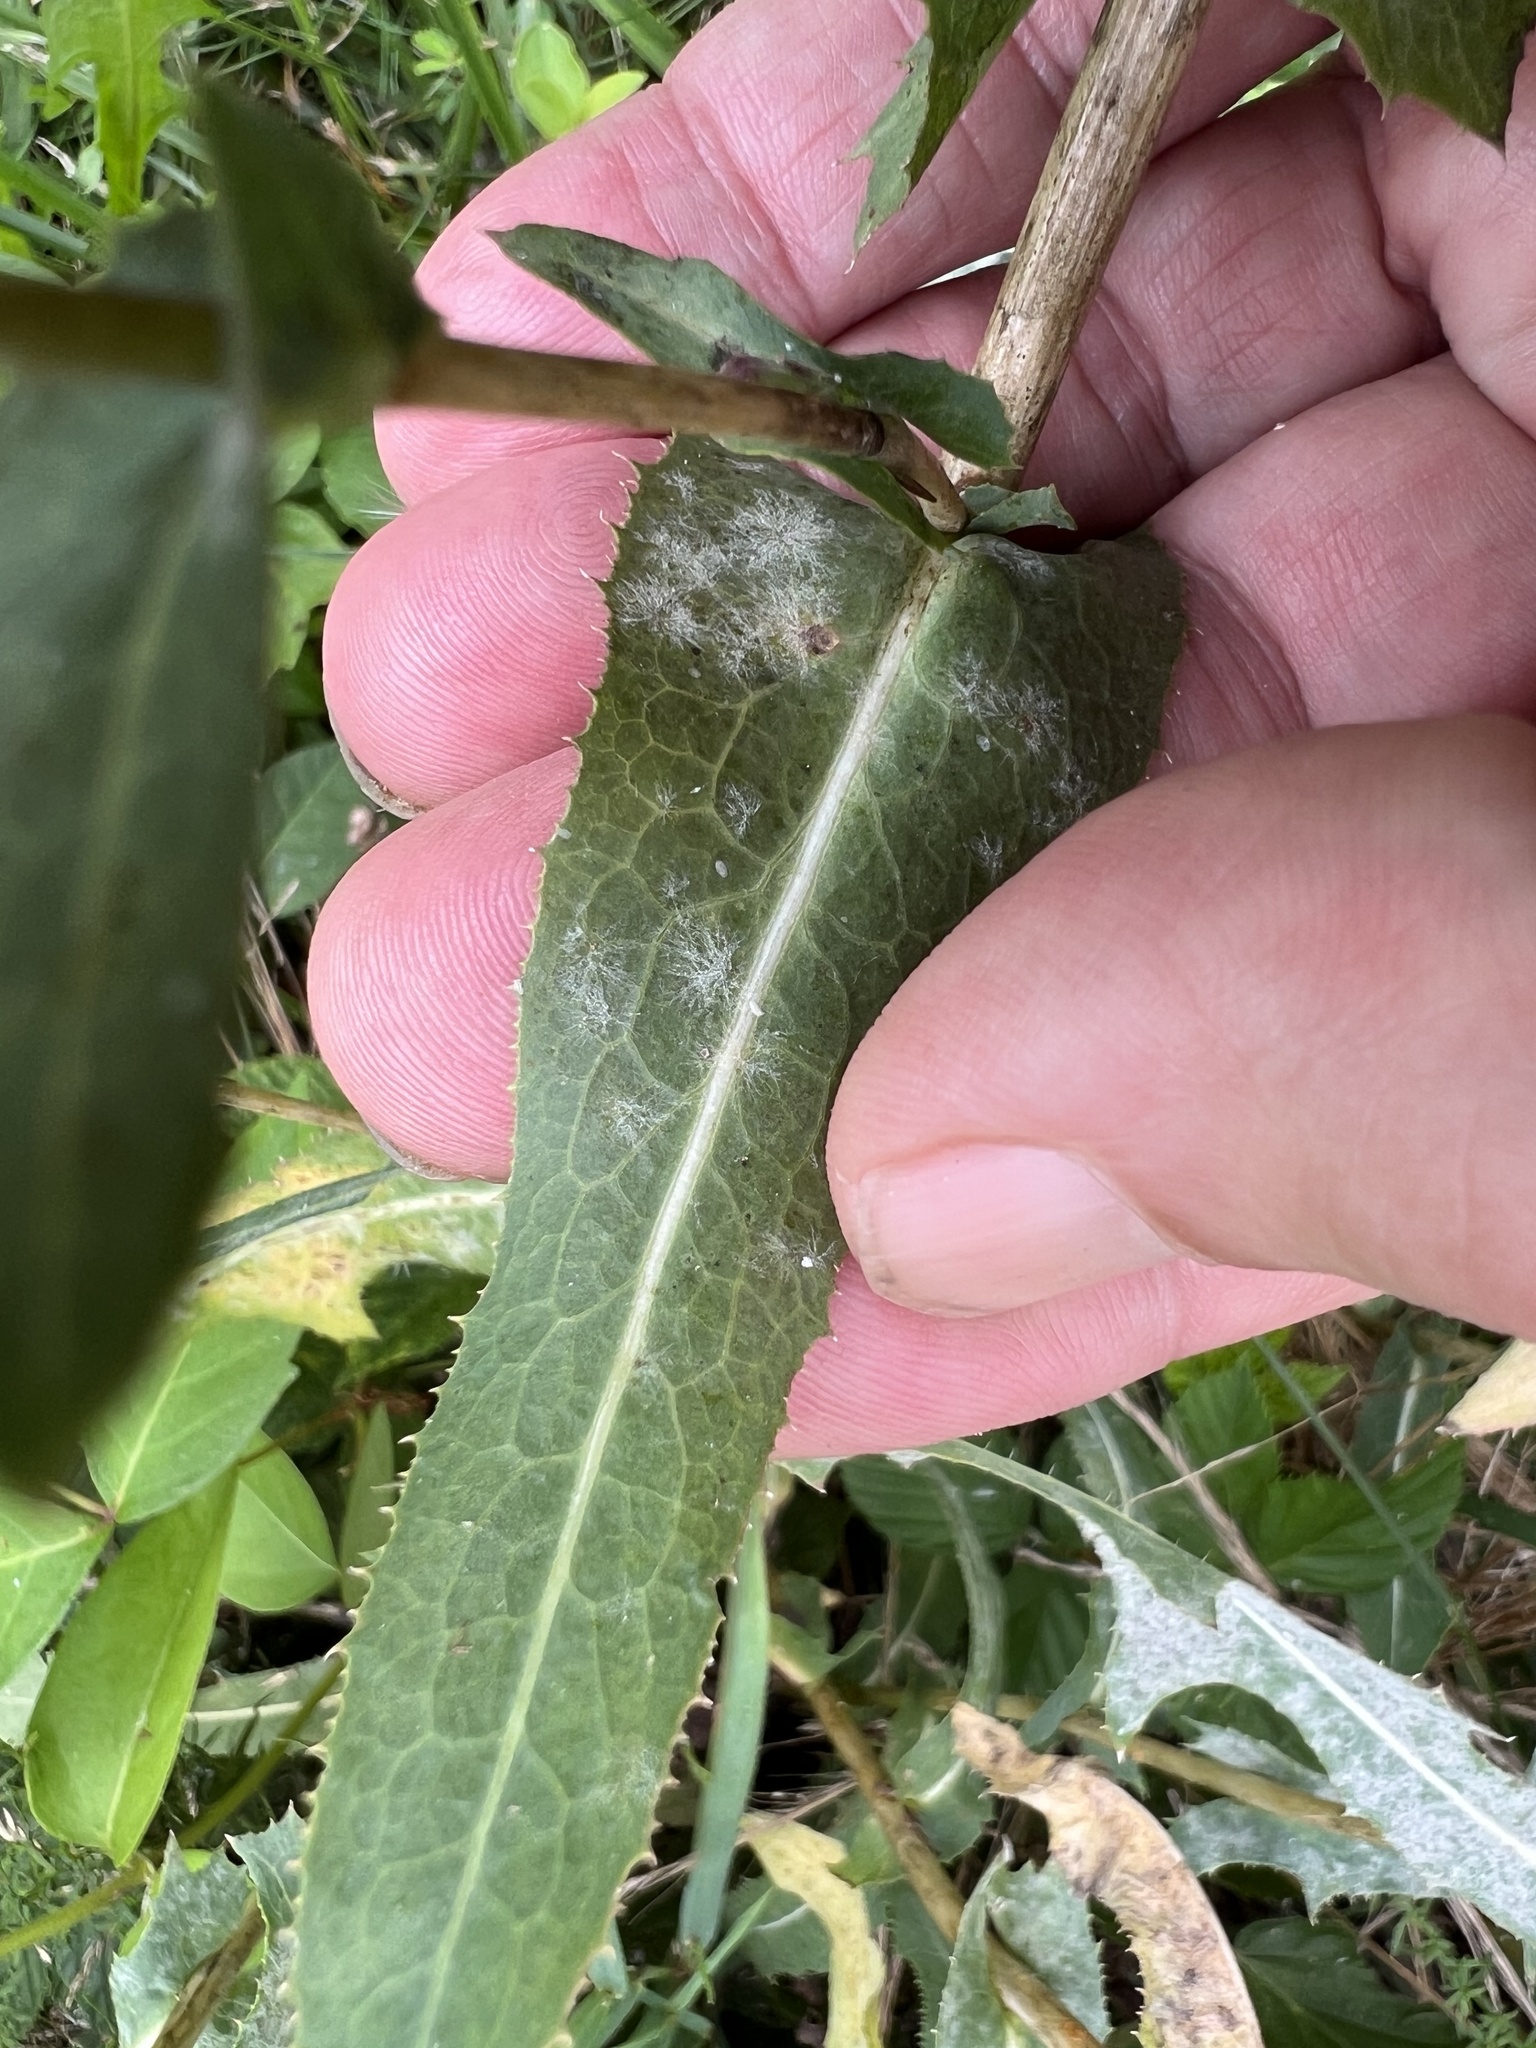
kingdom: Fungi
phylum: Ascomycota
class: Leotiomycetes
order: Helotiales
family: Erysiphaceae
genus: Golovinomyces
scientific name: Golovinomyces sonchicola
